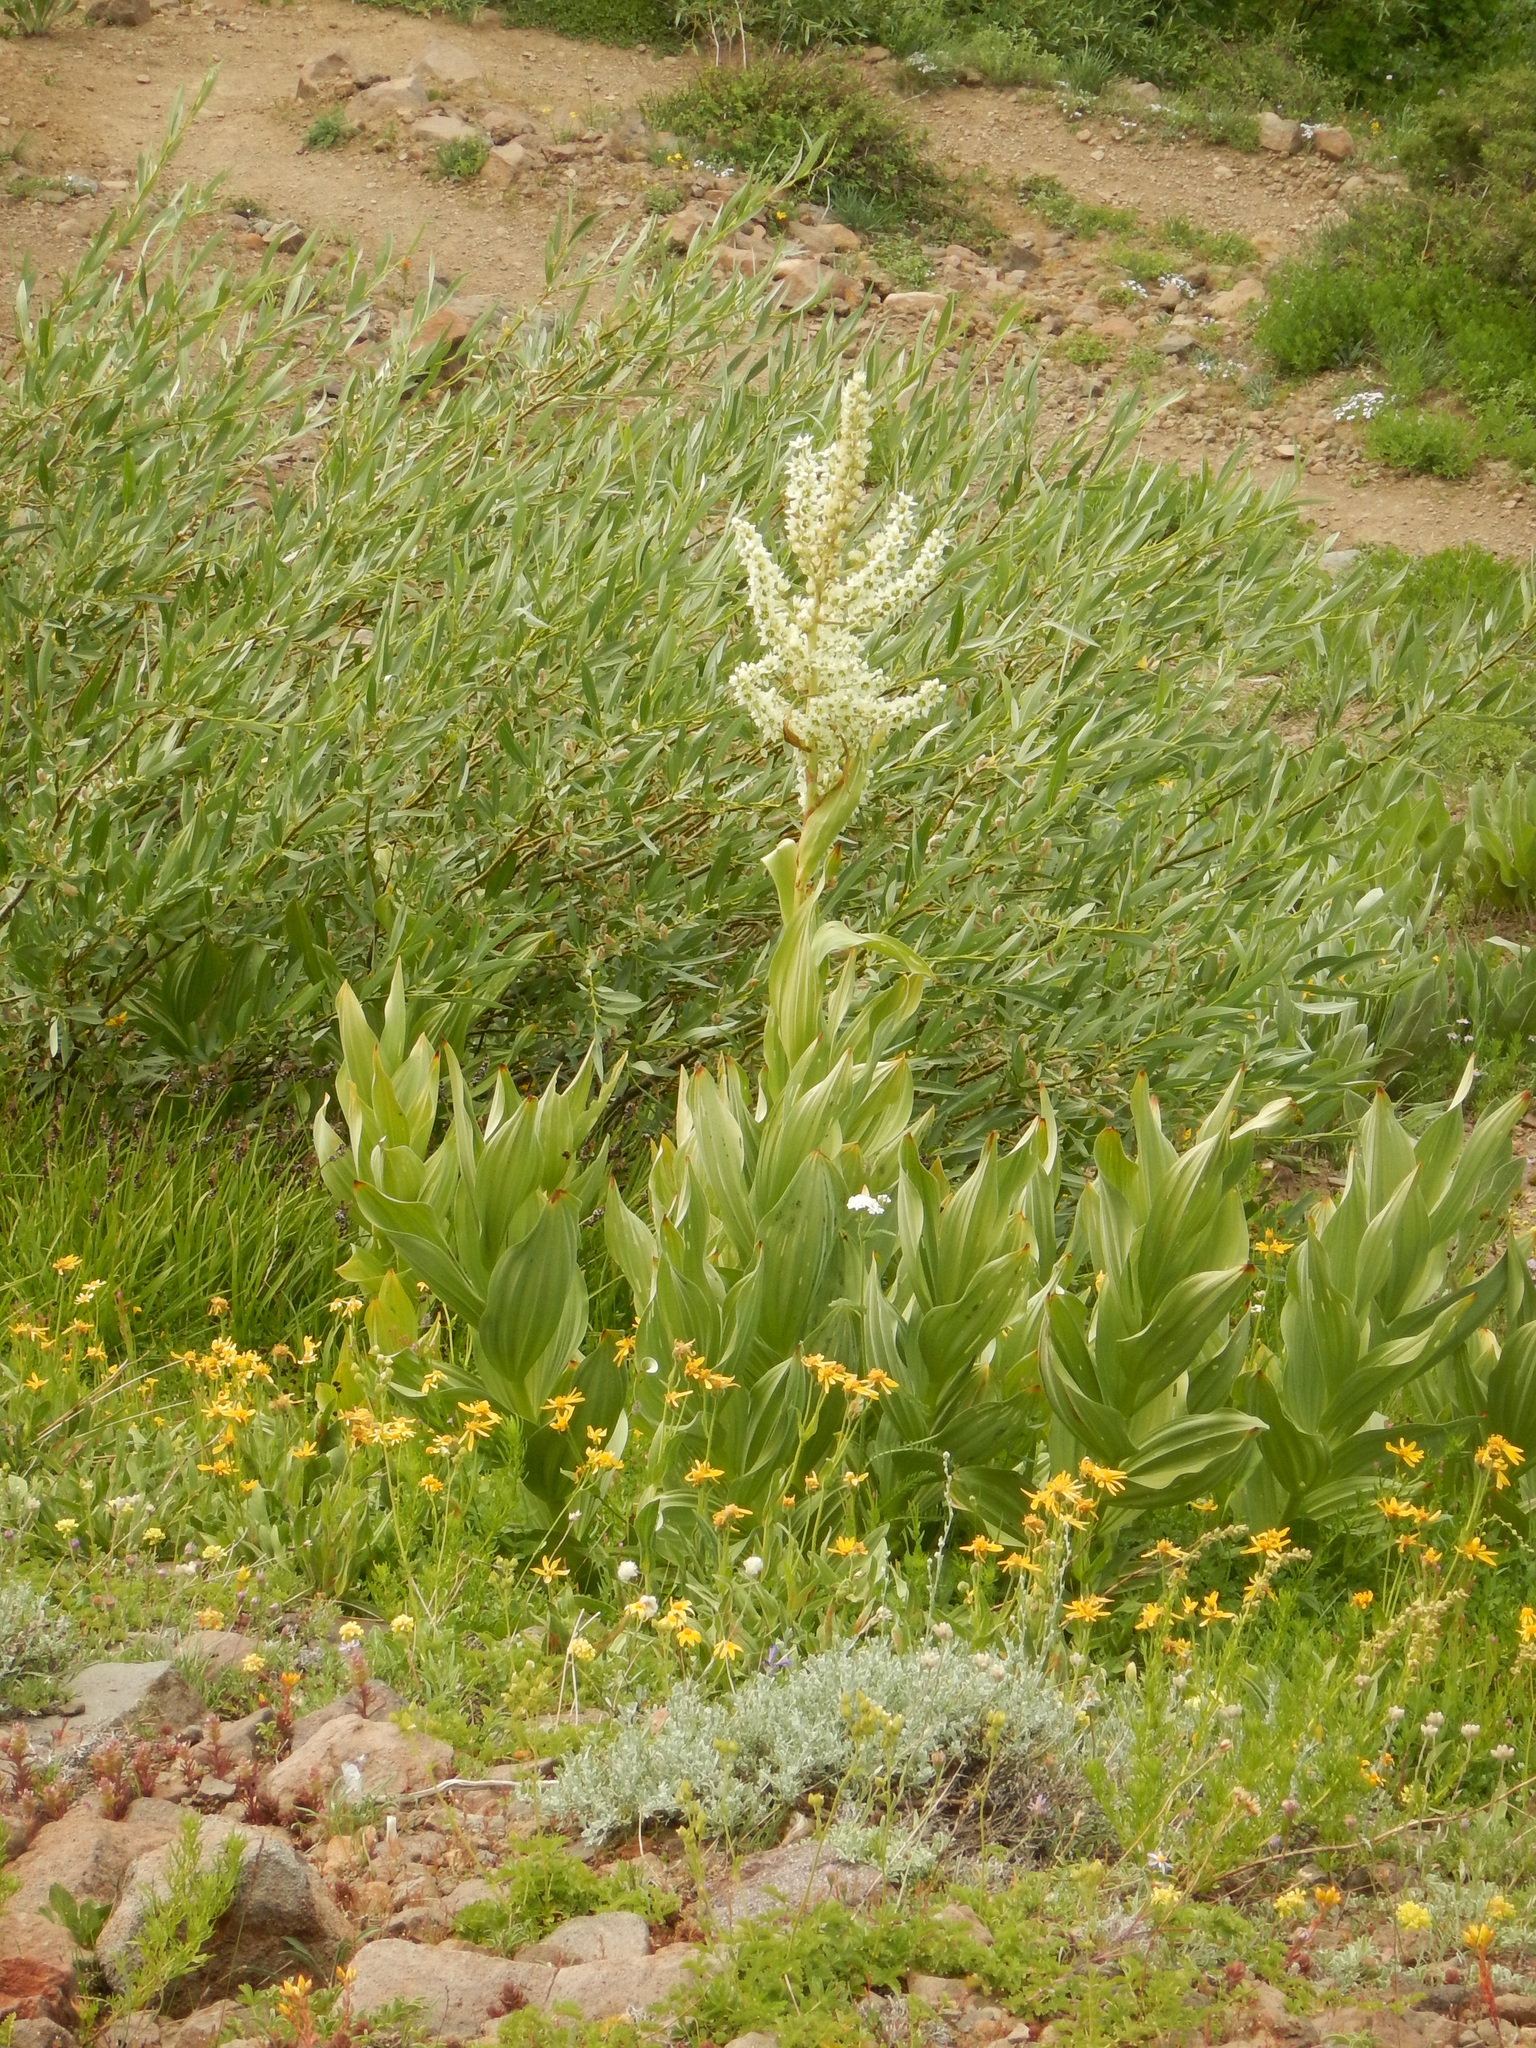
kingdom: Plantae
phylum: Tracheophyta
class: Liliopsida
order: Liliales
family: Melanthiaceae
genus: Veratrum
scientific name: Veratrum californicum
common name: California veratrum
